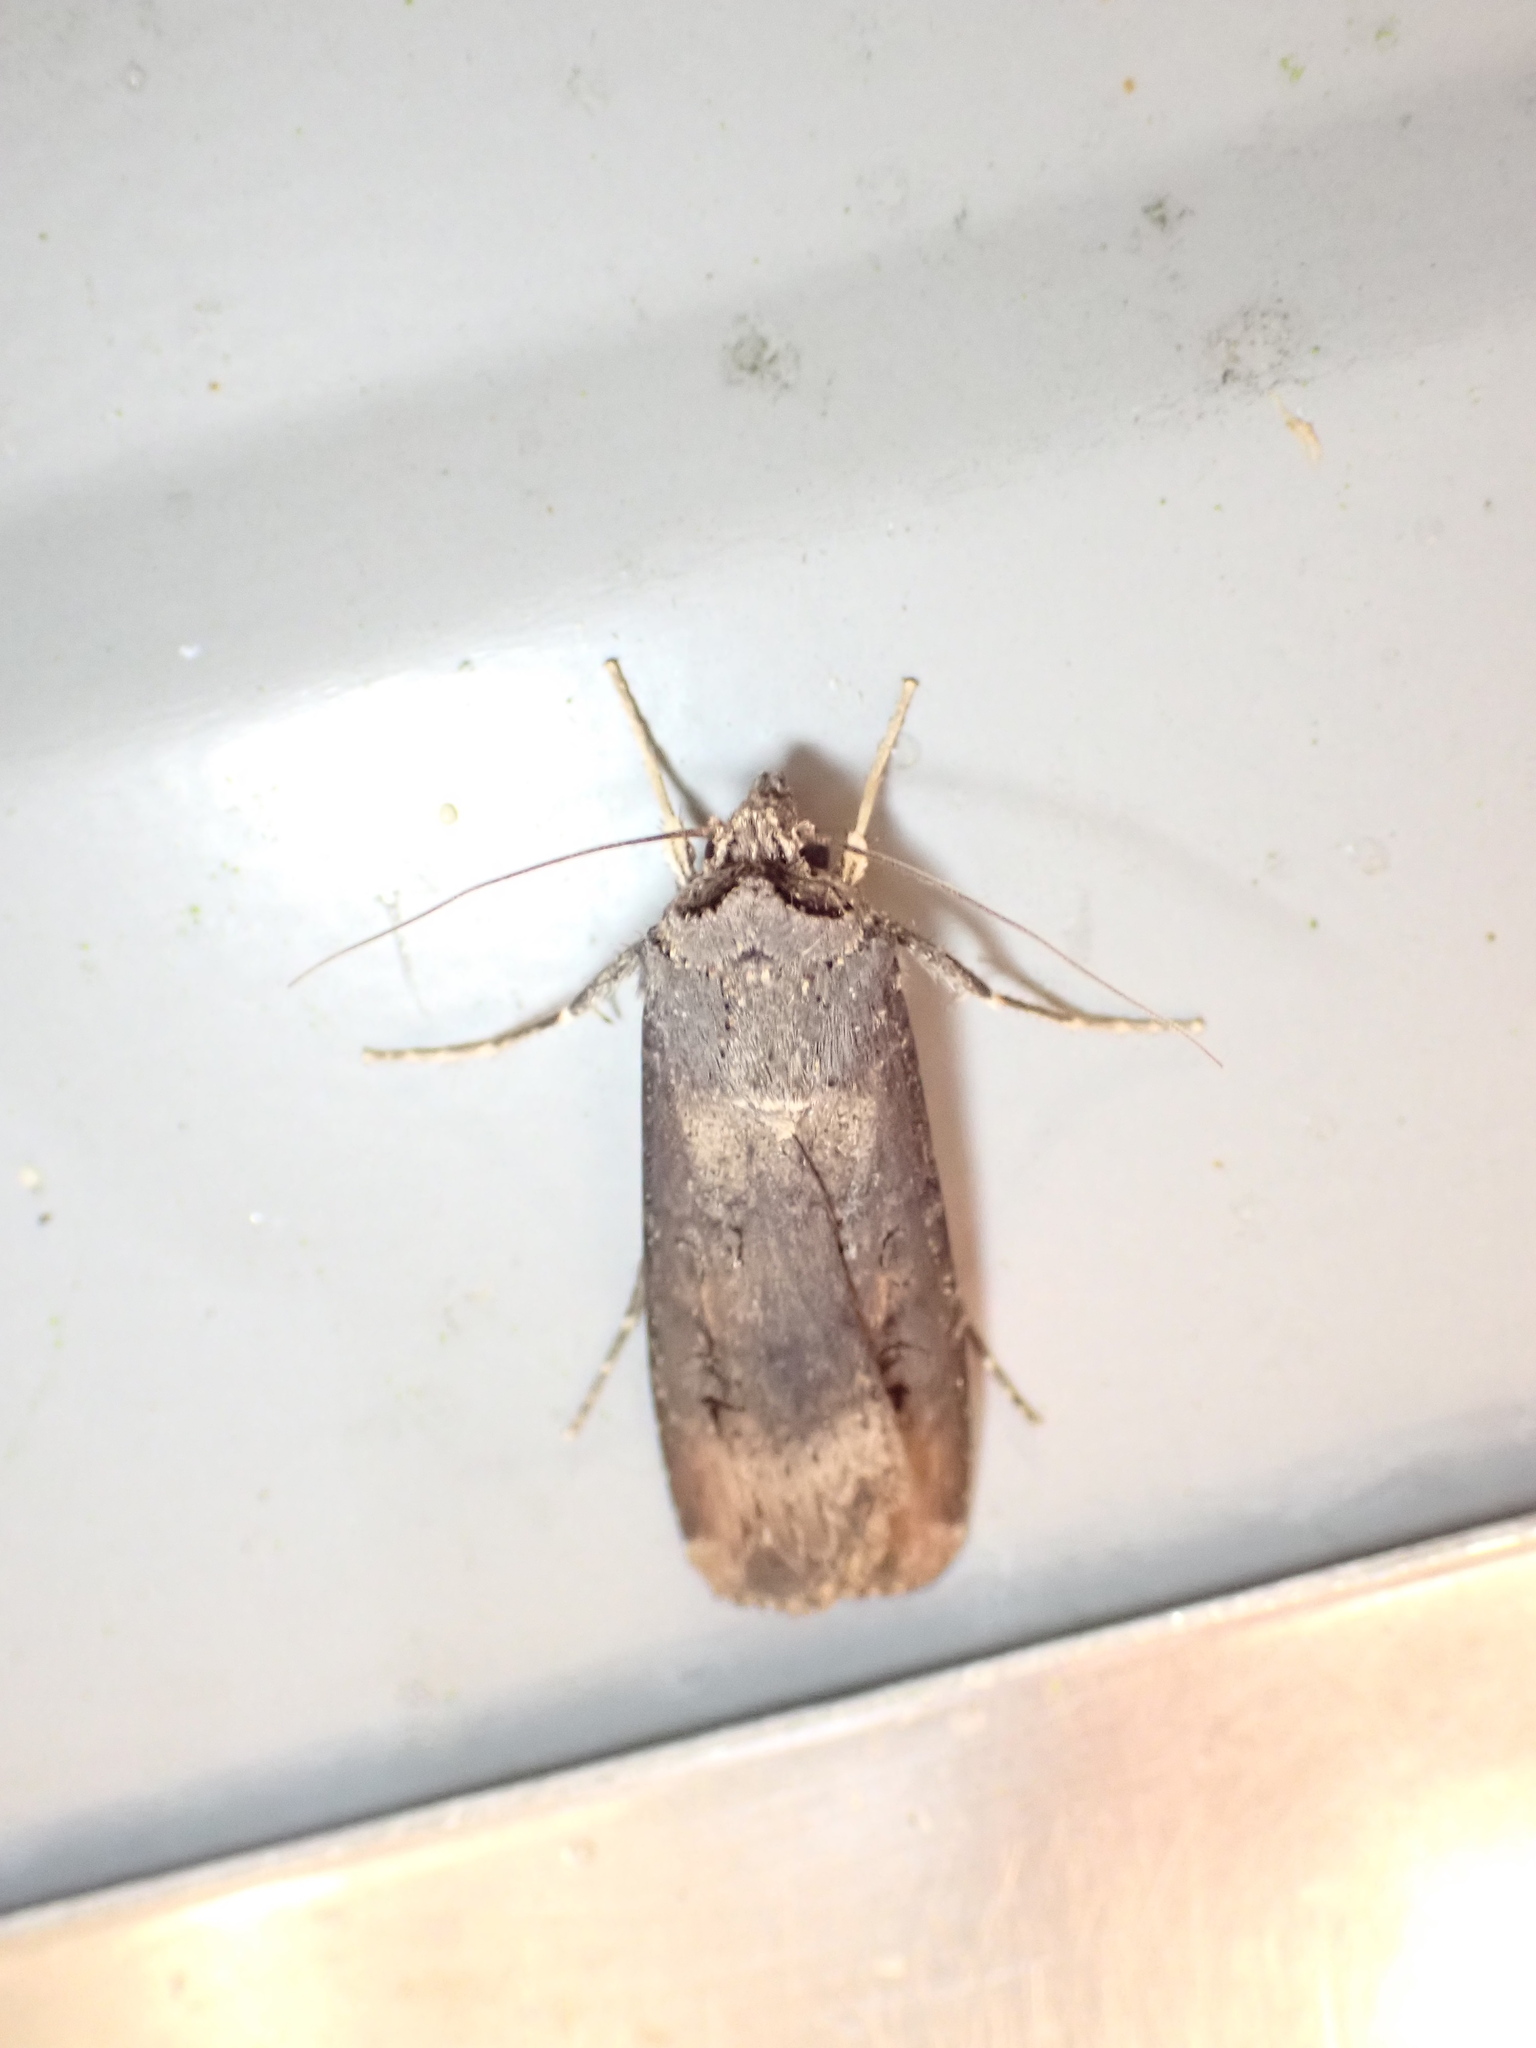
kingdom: Animalia
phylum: Arthropoda
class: Insecta
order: Lepidoptera
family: Noctuidae
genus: Agrotis
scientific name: Agrotis ipsilon
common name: Dark sword-grass
